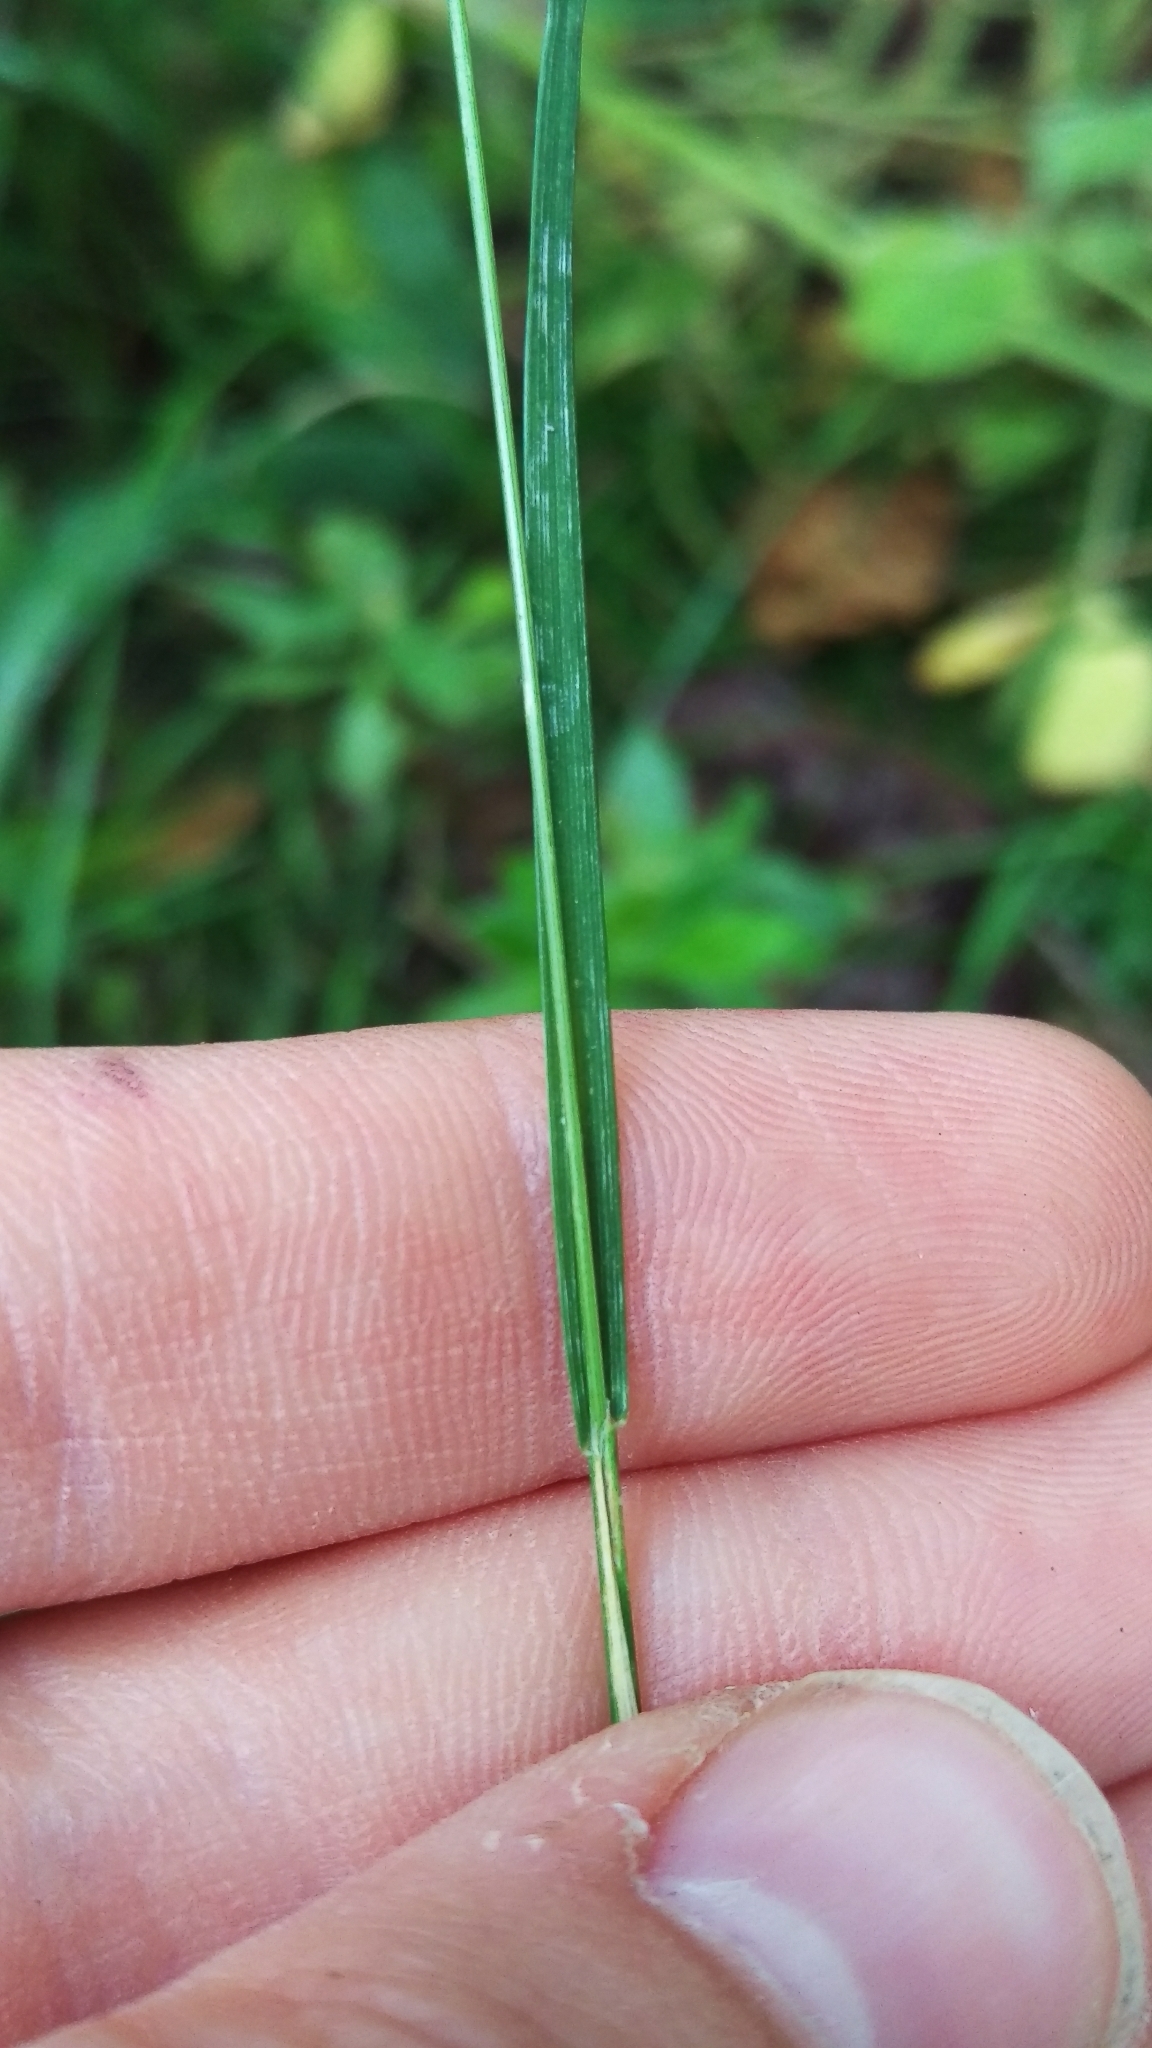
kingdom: Plantae
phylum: Tracheophyta
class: Liliopsida
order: Poales
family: Poaceae
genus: Cynosurus
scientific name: Cynosurus cristatus
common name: Crested dog's-tail
